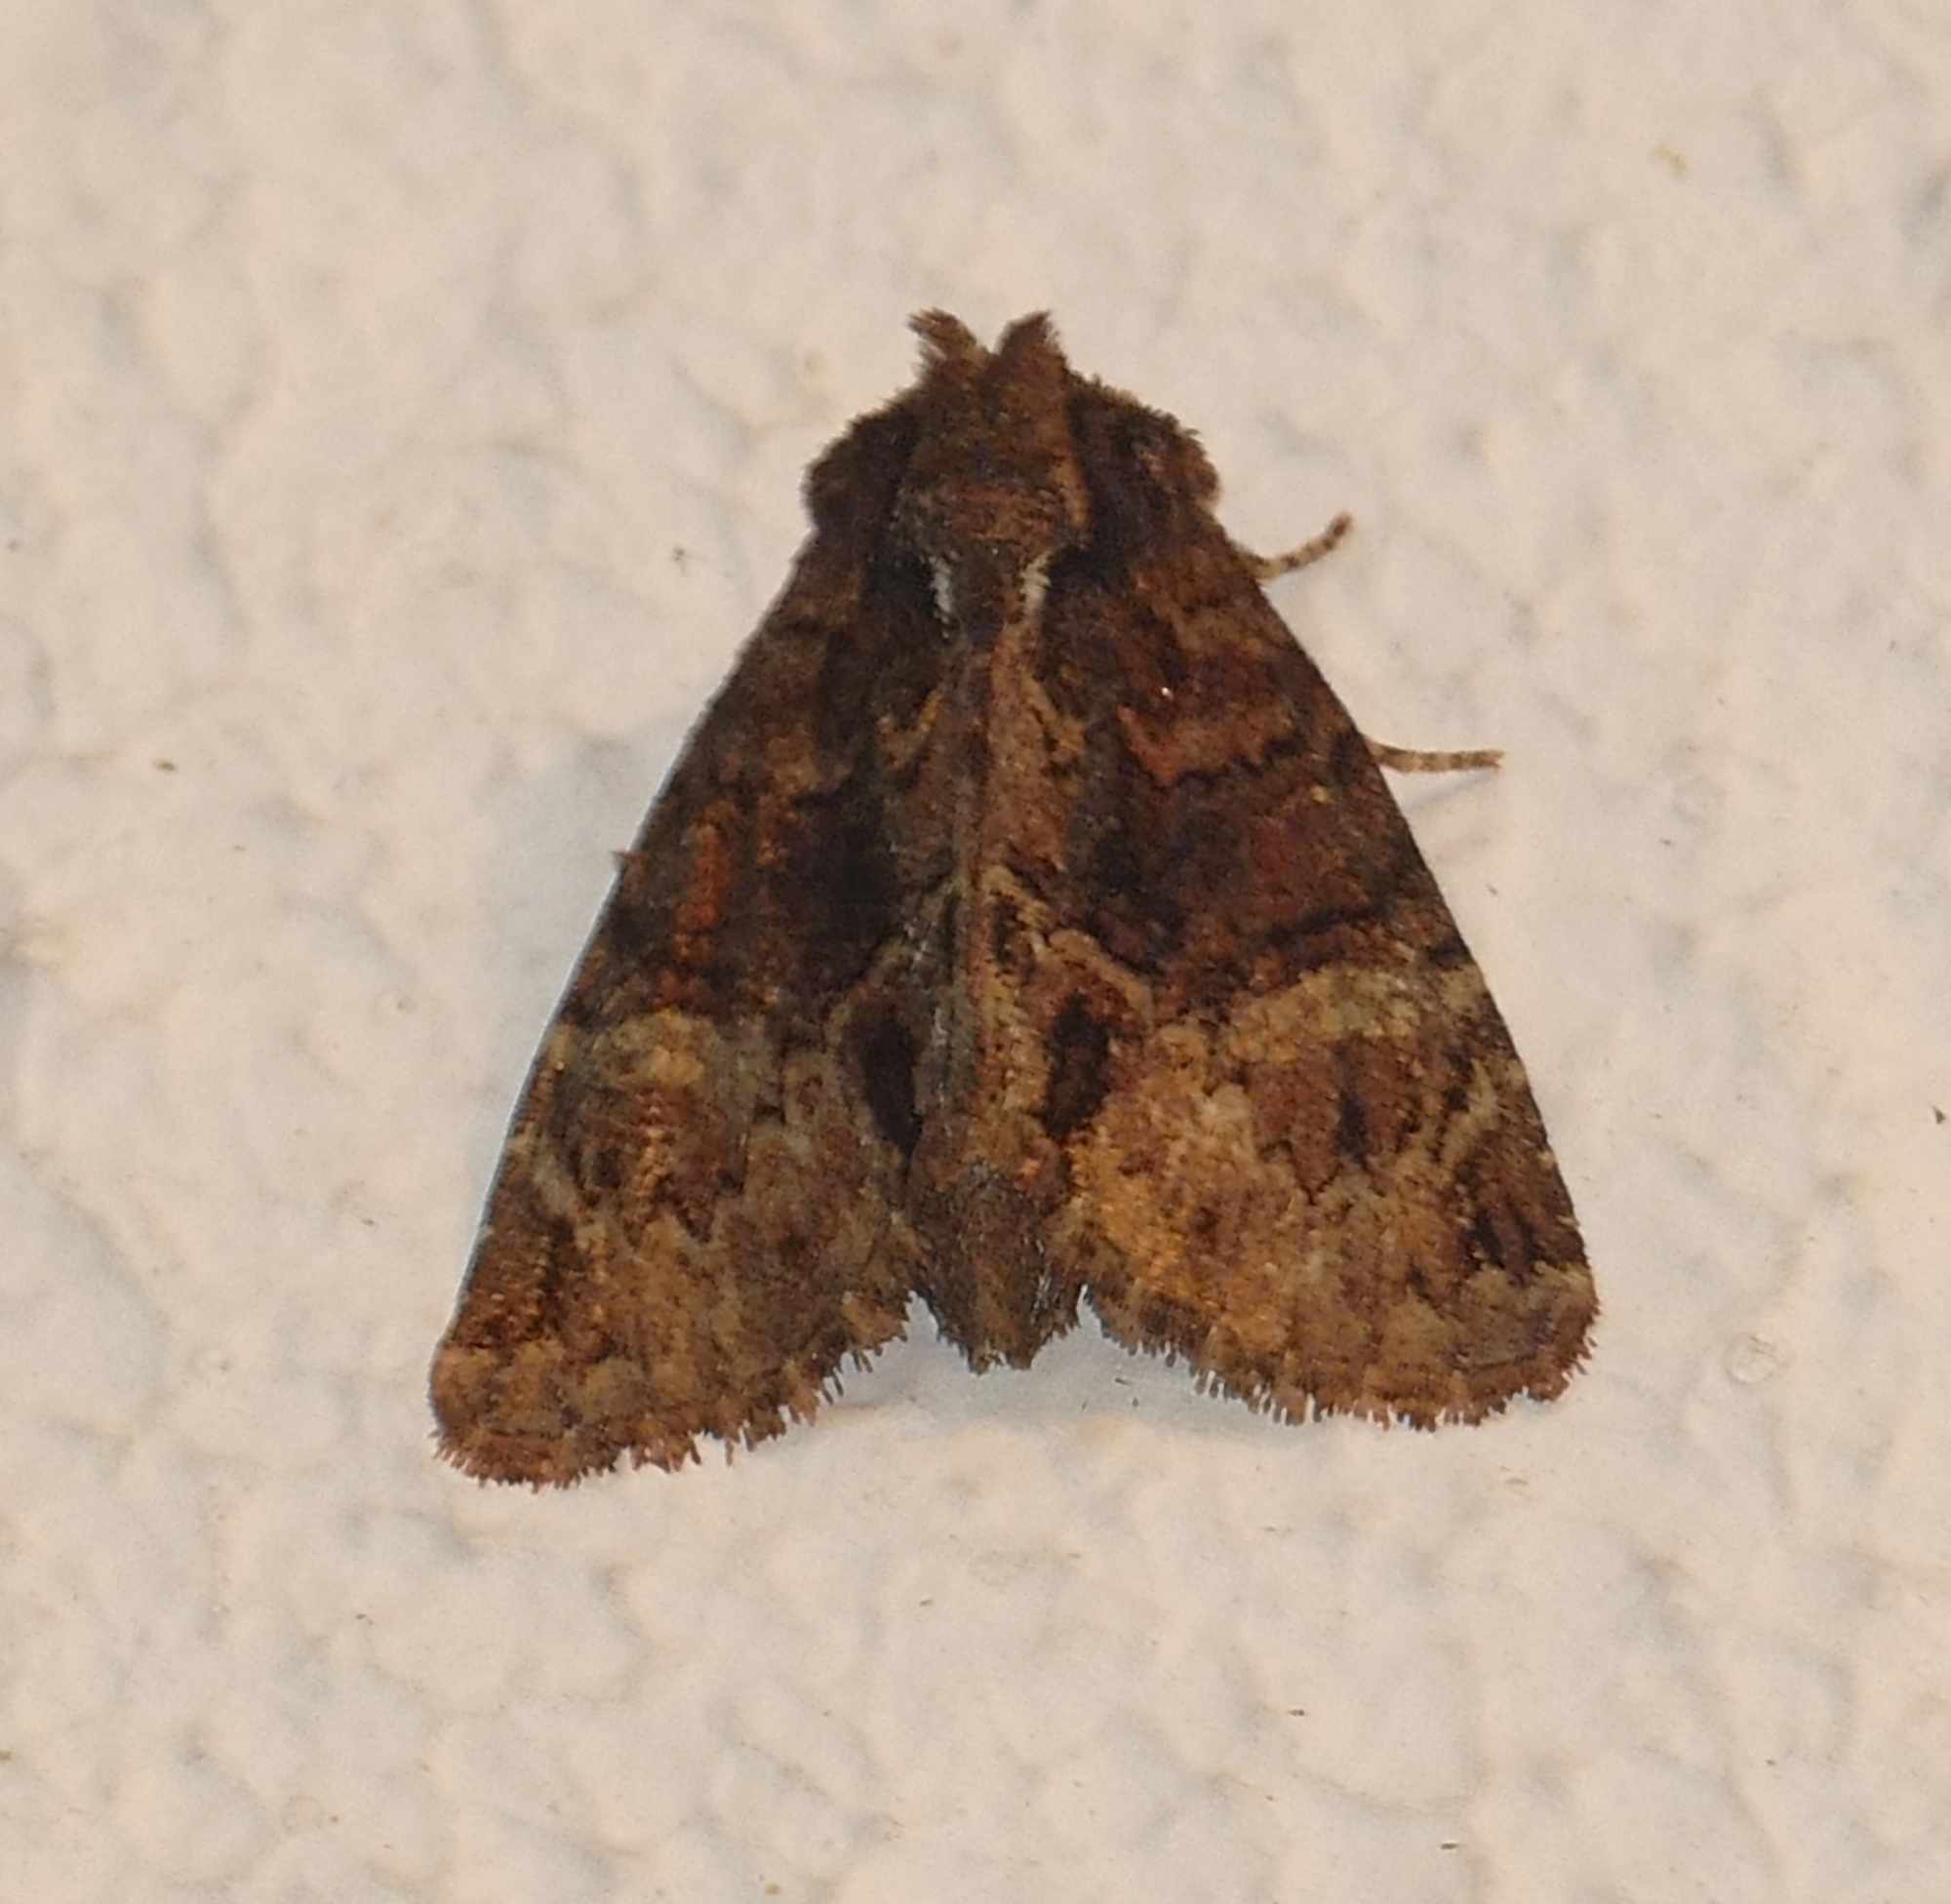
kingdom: Animalia
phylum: Arthropoda
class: Insecta
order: Lepidoptera
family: Noctuidae
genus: Phosphila
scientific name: Phosphila turbulenta
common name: Turbulent phosphila moth
